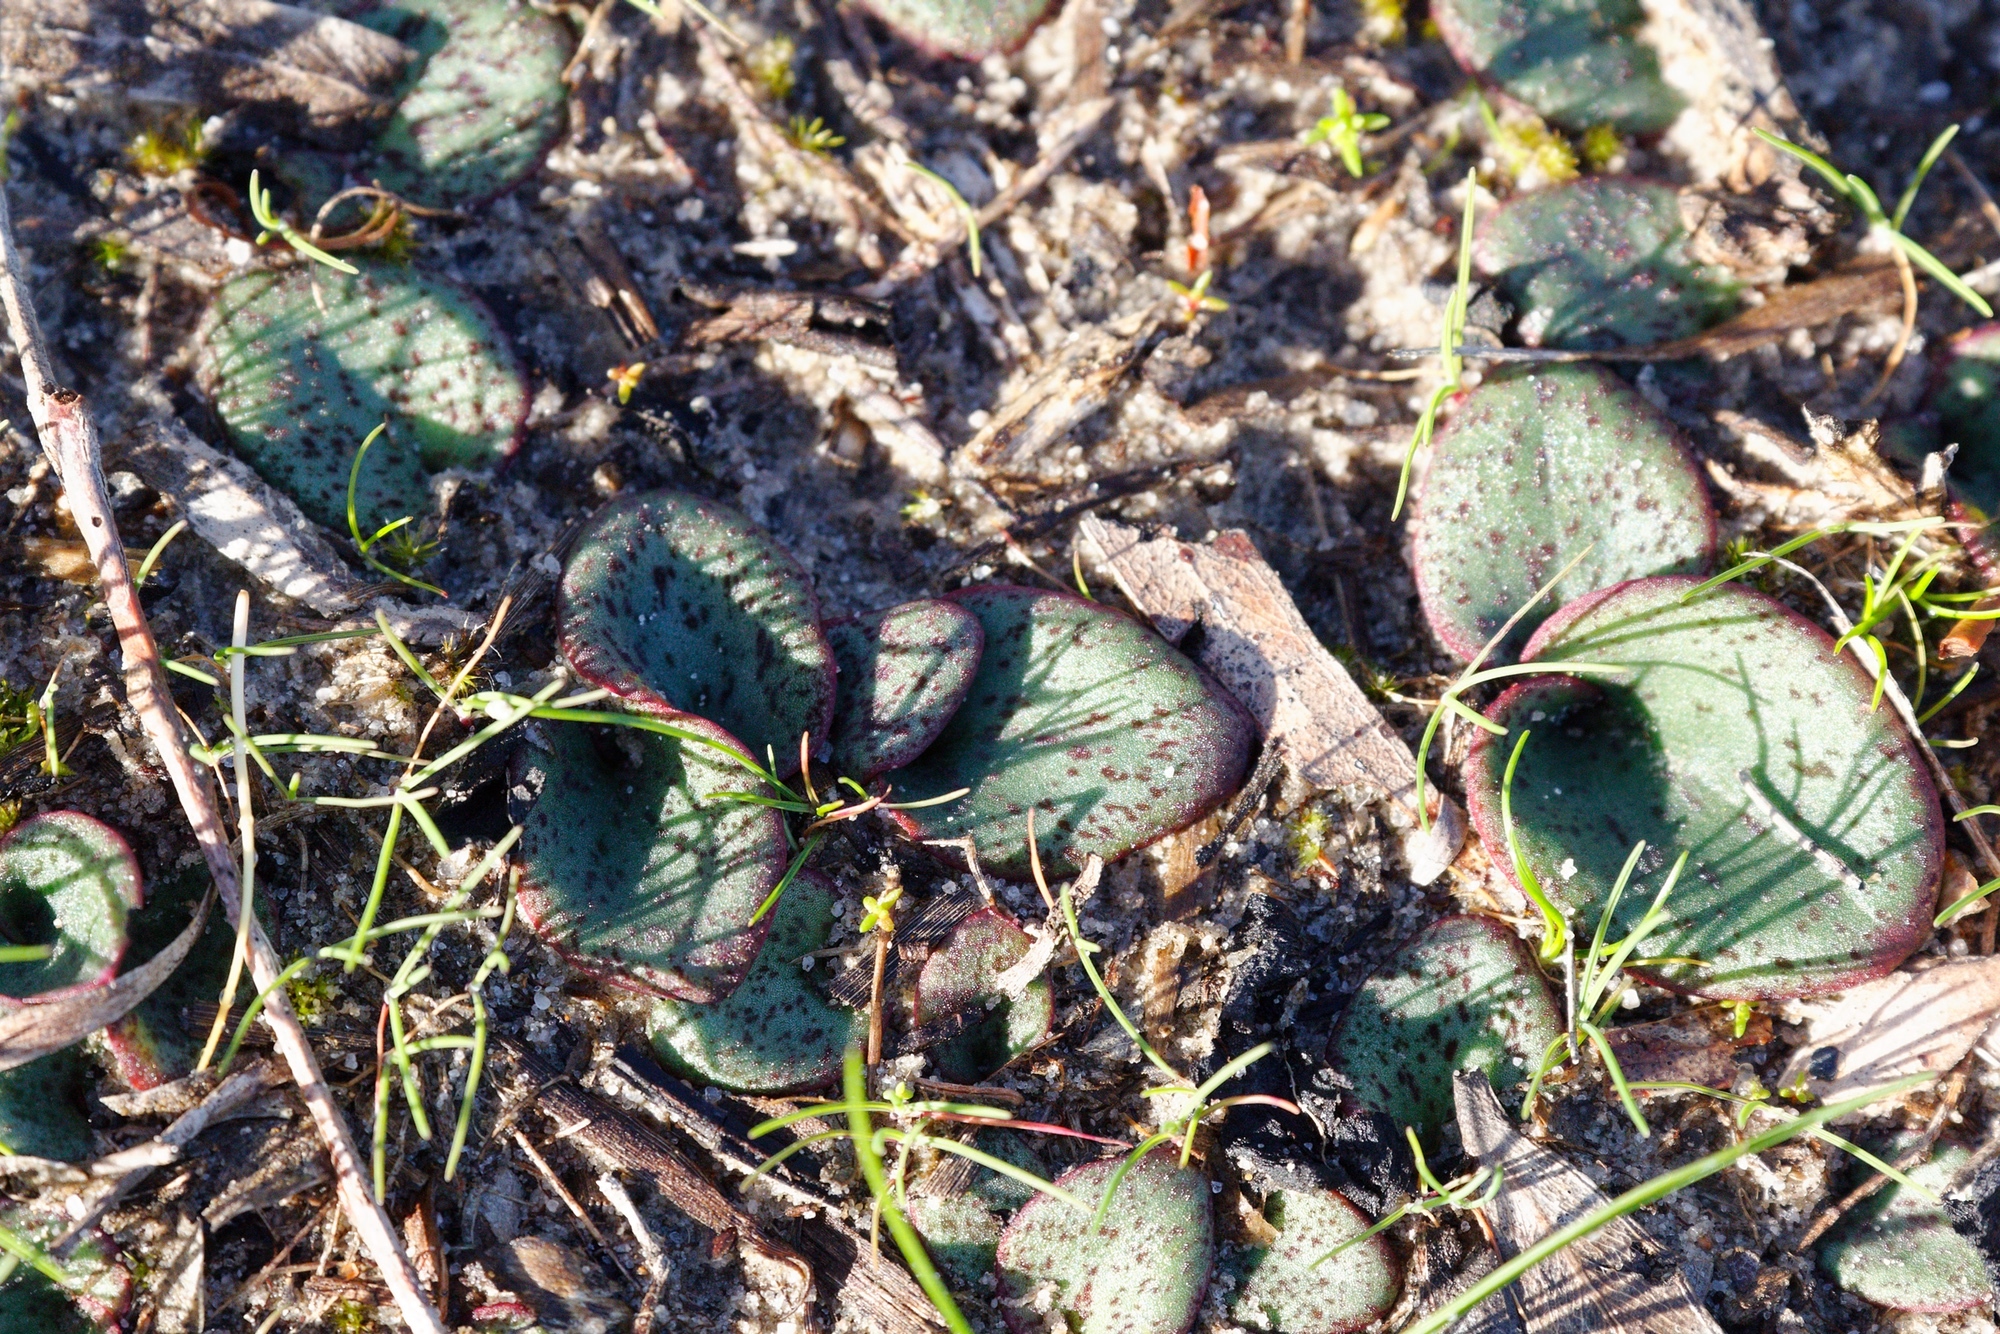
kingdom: Plantae
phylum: Tracheophyta
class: Liliopsida
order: Asparagales
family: Orchidaceae
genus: Pyrorchis
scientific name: Pyrorchis nigricans
